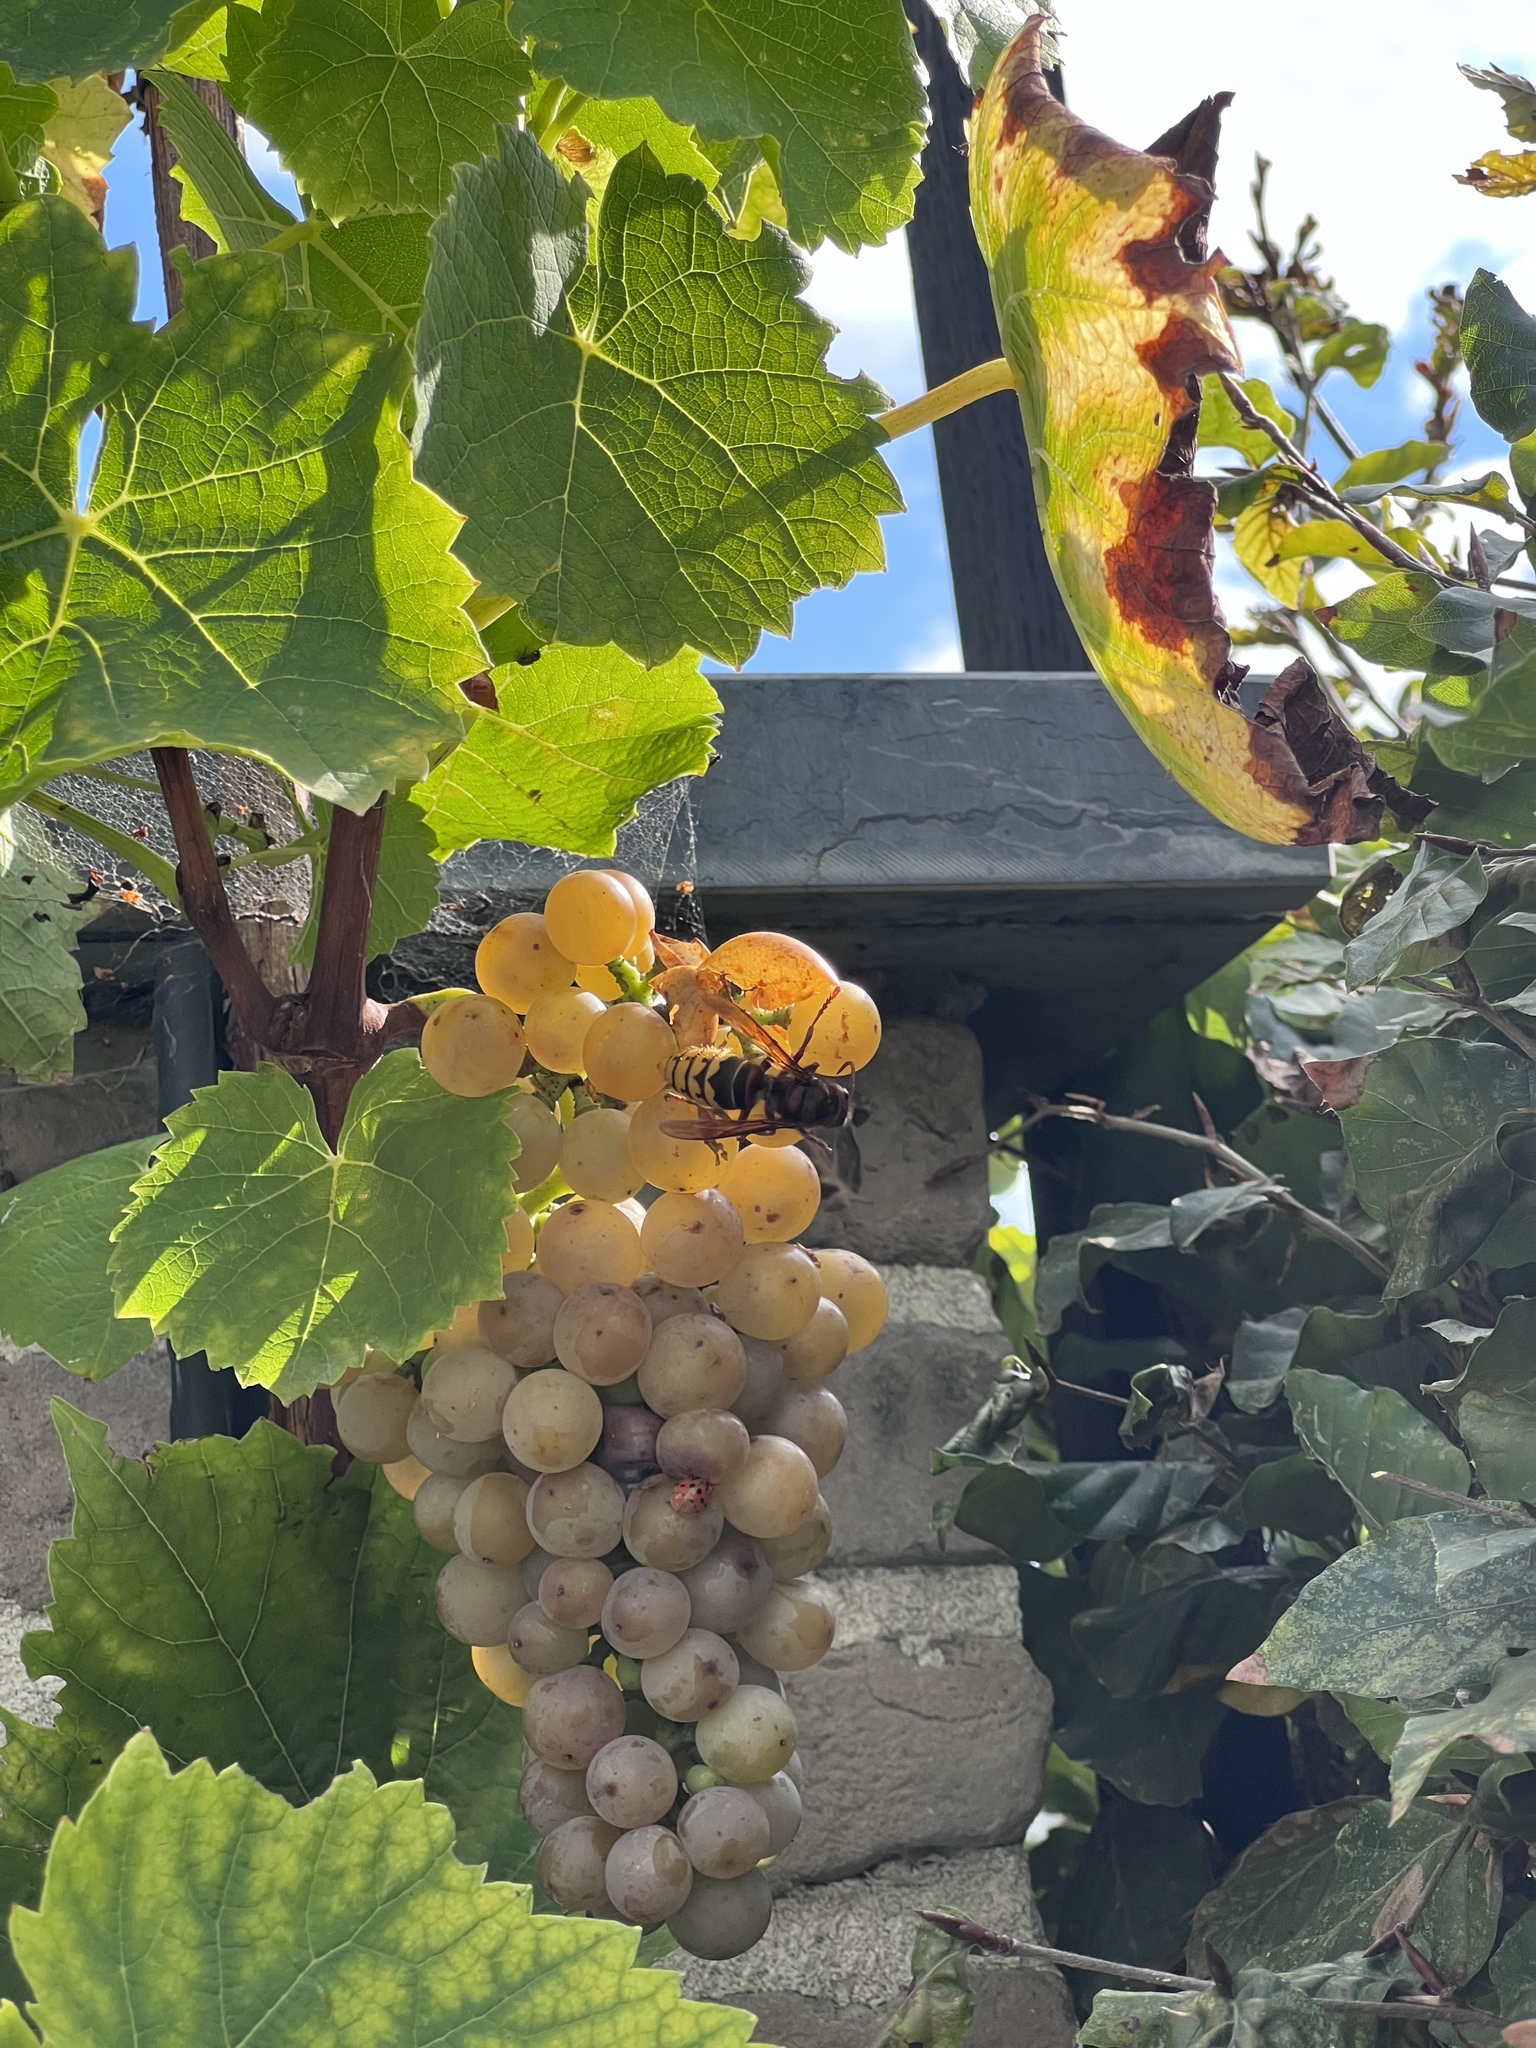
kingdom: Animalia
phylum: Arthropoda
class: Insecta
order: Hymenoptera
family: Vespidae
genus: Vespa
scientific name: Vespa crabro
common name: Hornet
